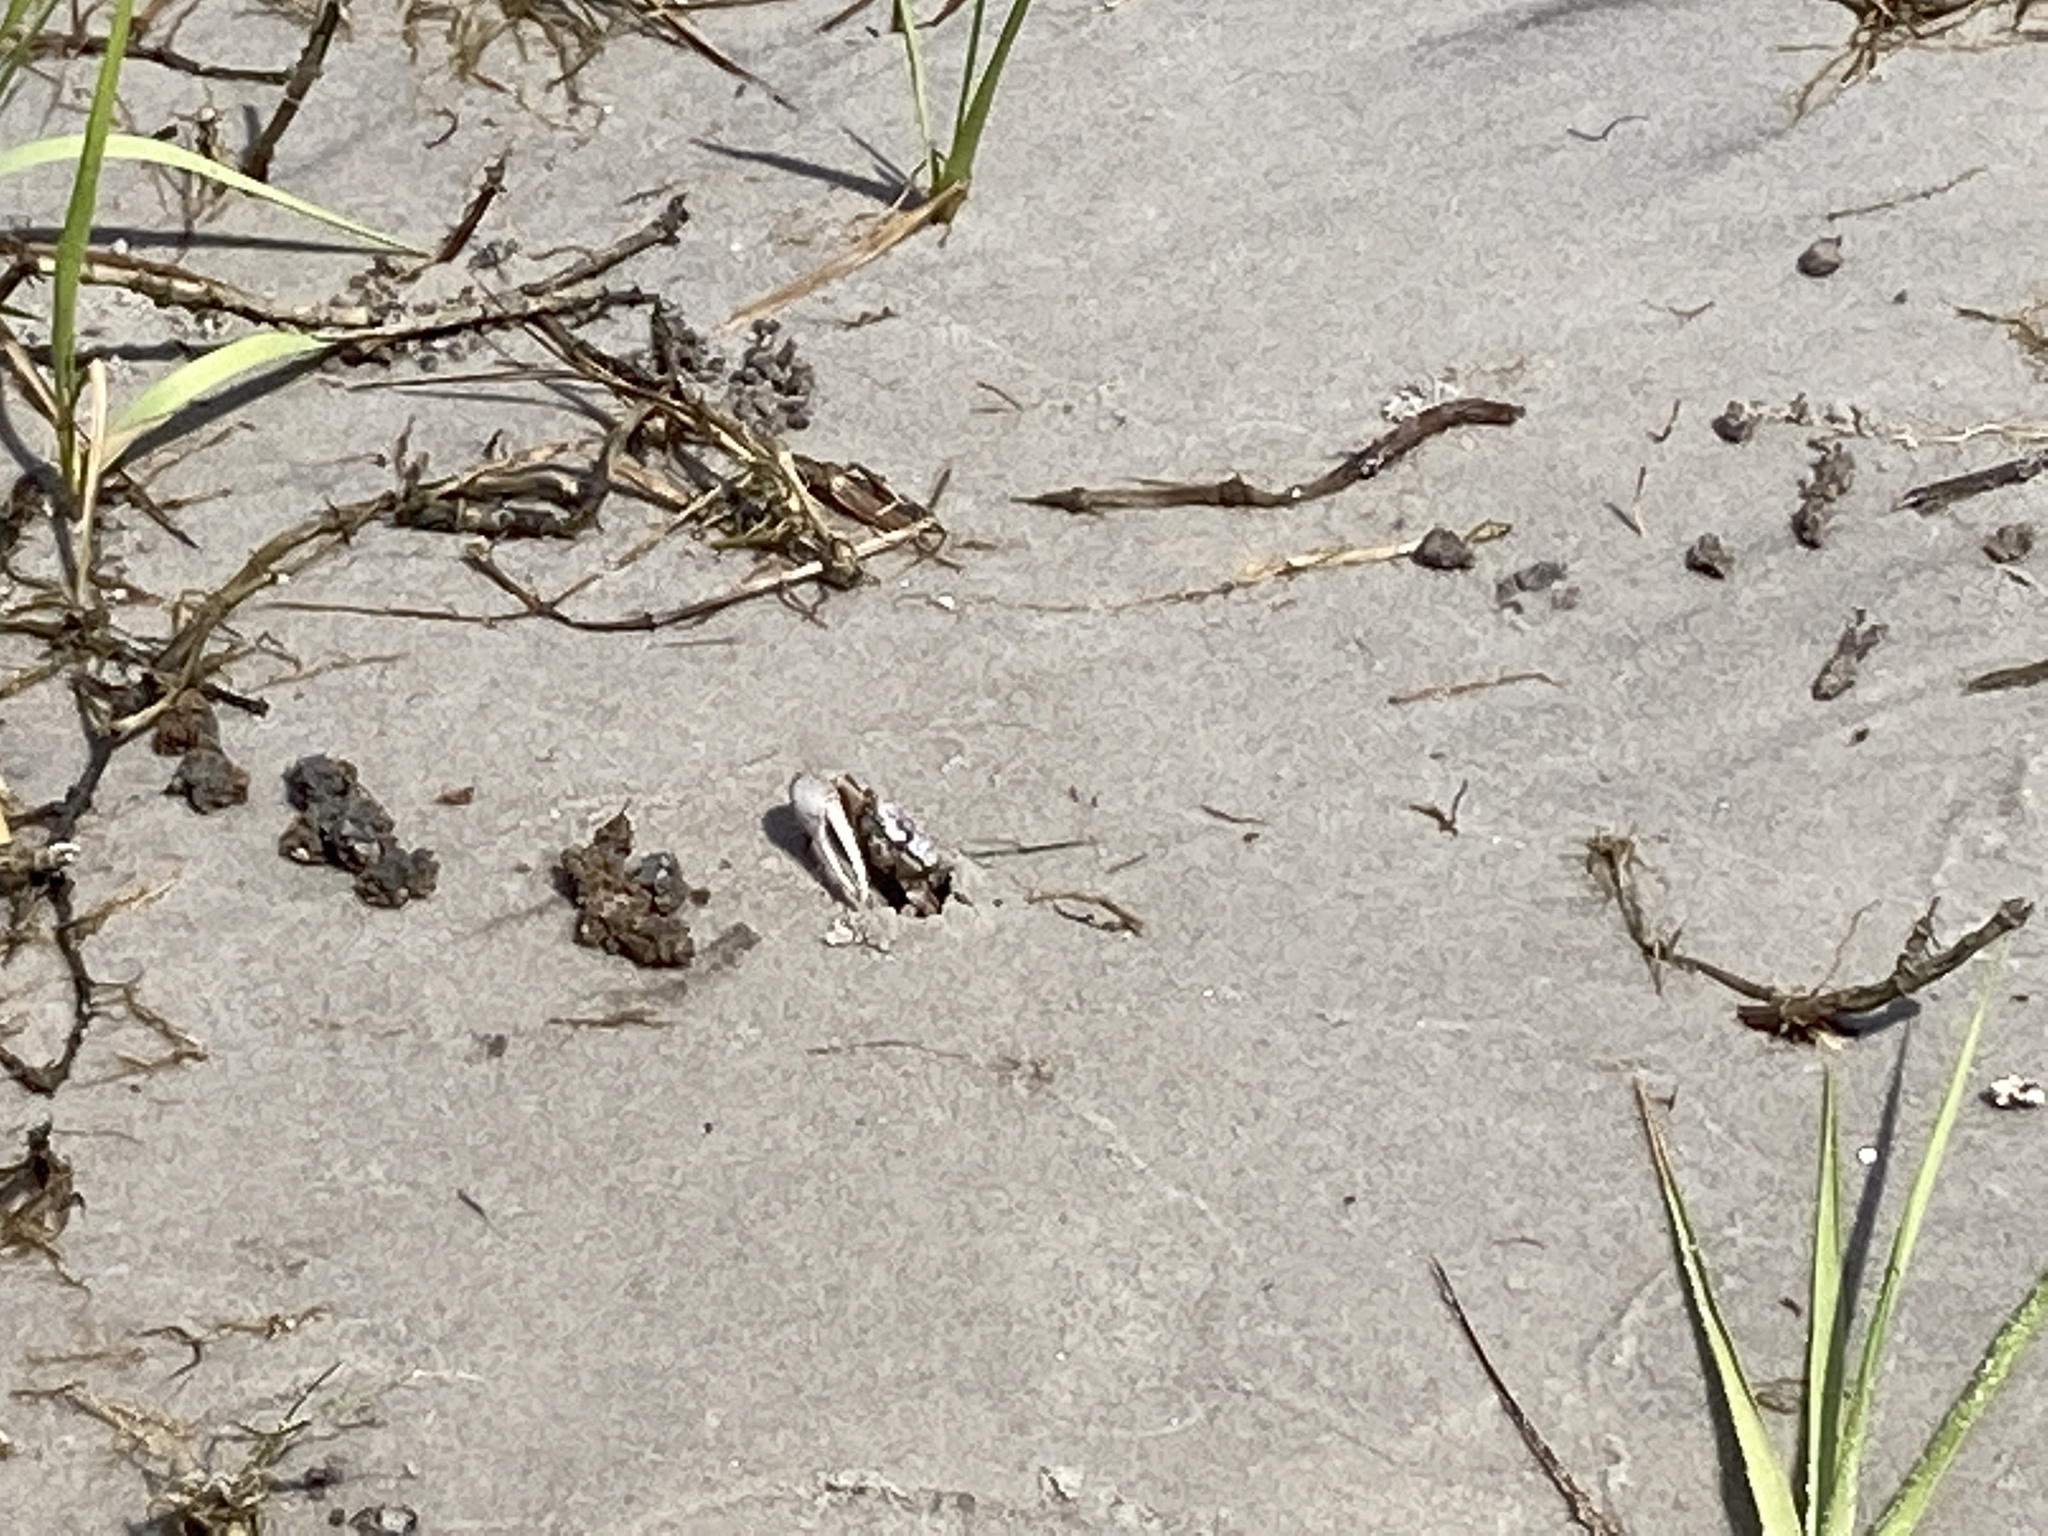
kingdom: Animalia
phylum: Arthropoda
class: Malacostraca
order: Decapoda
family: Ocypodidae
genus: Leptuca
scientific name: Leptuca pugilator
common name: Atlantic sand fiddler crab
